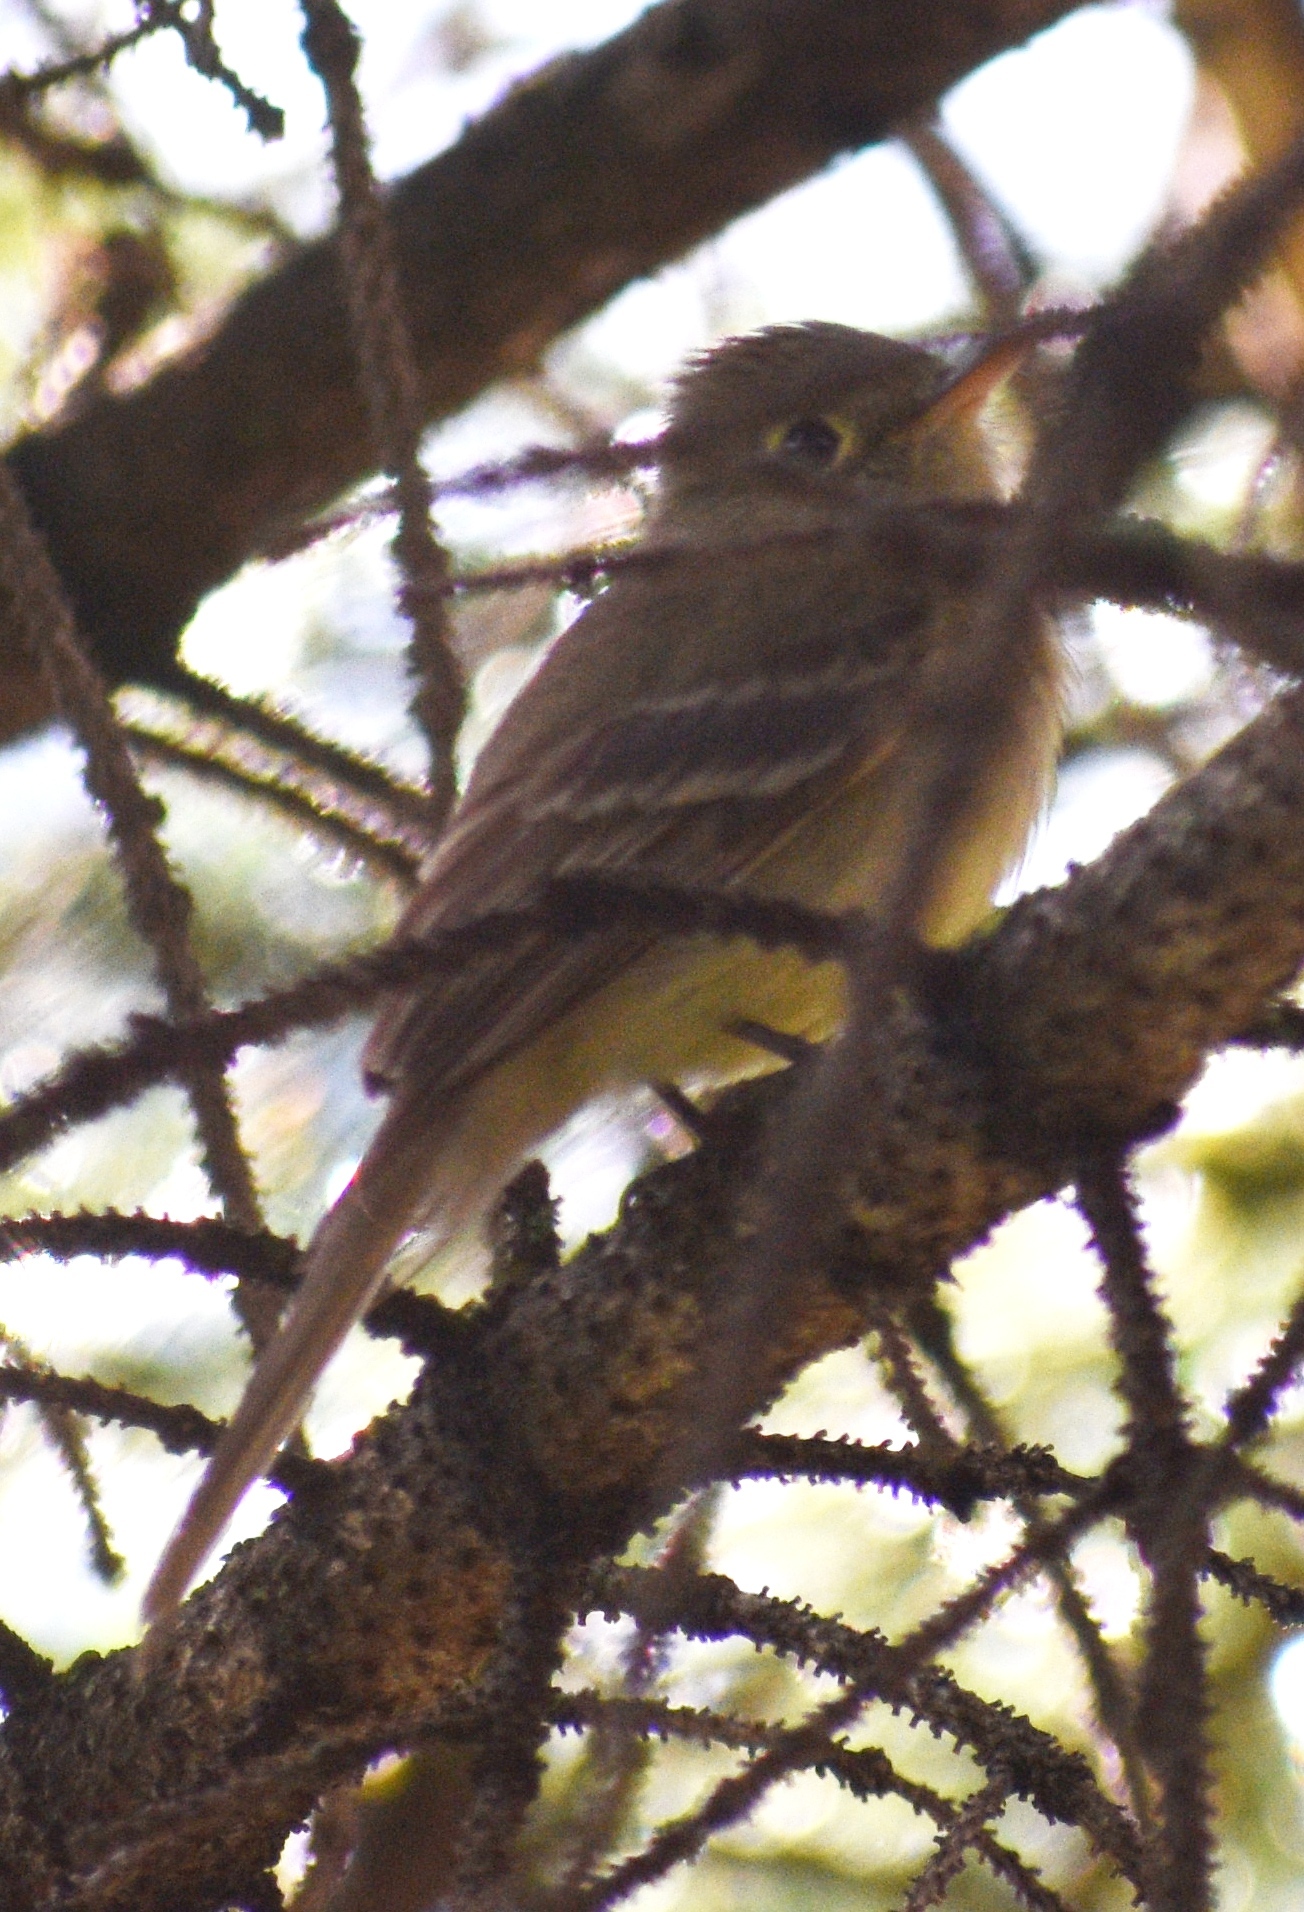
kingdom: Animalia
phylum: Chordata
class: Aves
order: Passeriformes
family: Tyrannidae
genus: Empidonax
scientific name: Empidonax difficilis
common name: Pacific-slope flycatcher
